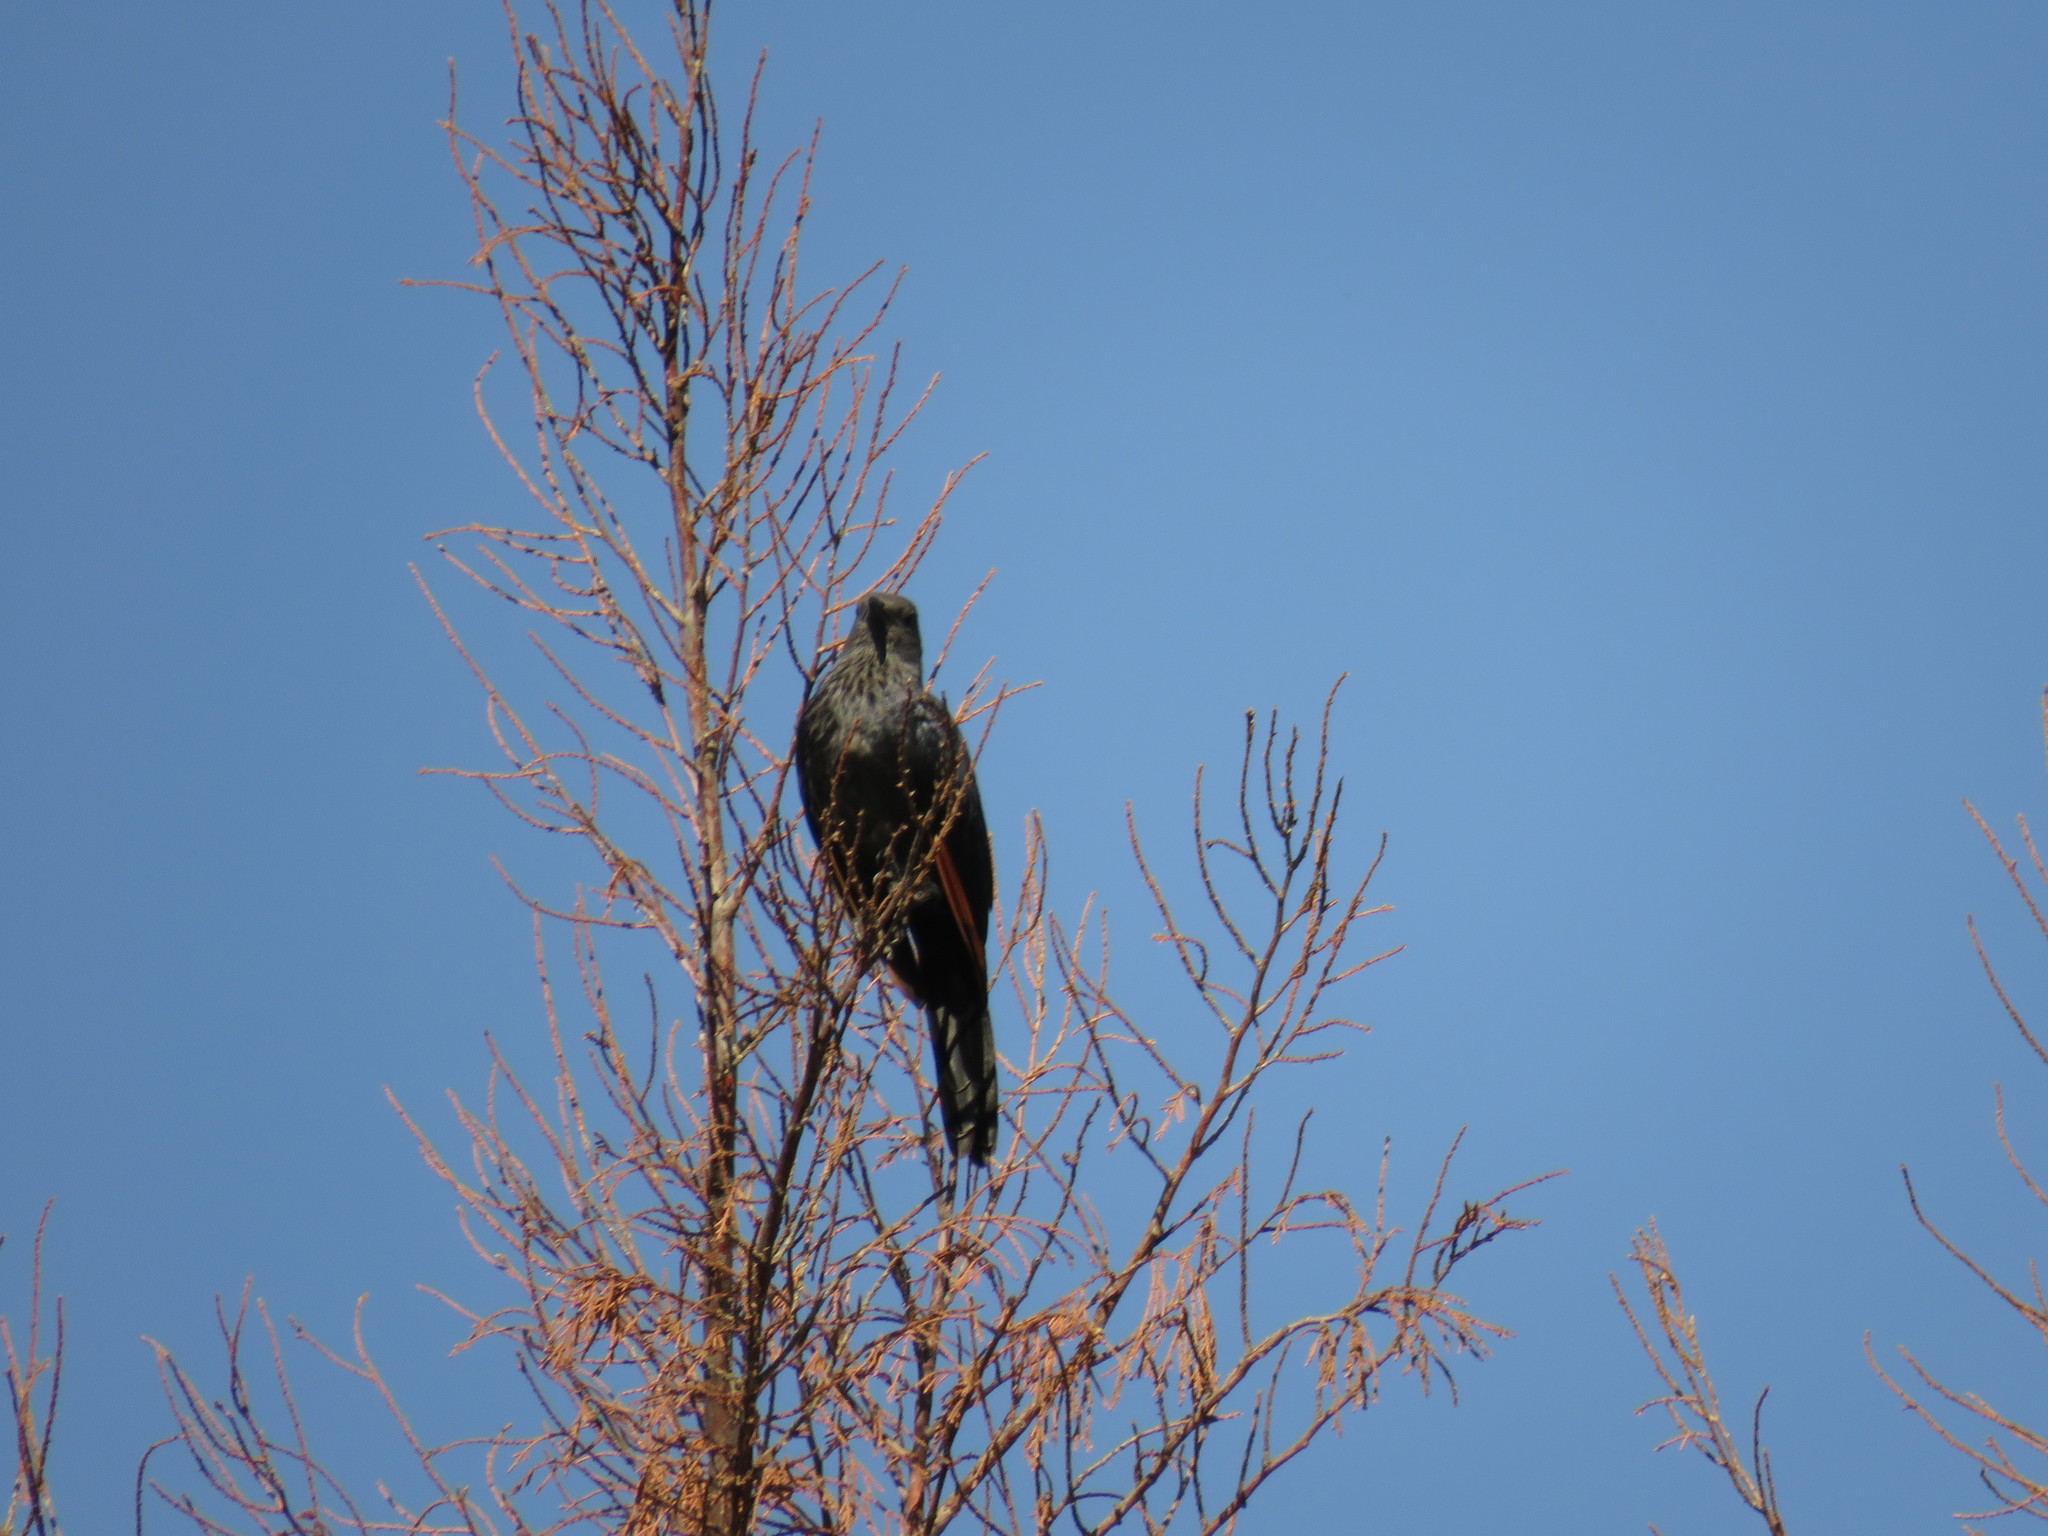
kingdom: Animalia
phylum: Chordata
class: Aves
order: Passeriformes
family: Sturnidae
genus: Onychognathus
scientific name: Onychognathus morio
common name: Red-winged starling
